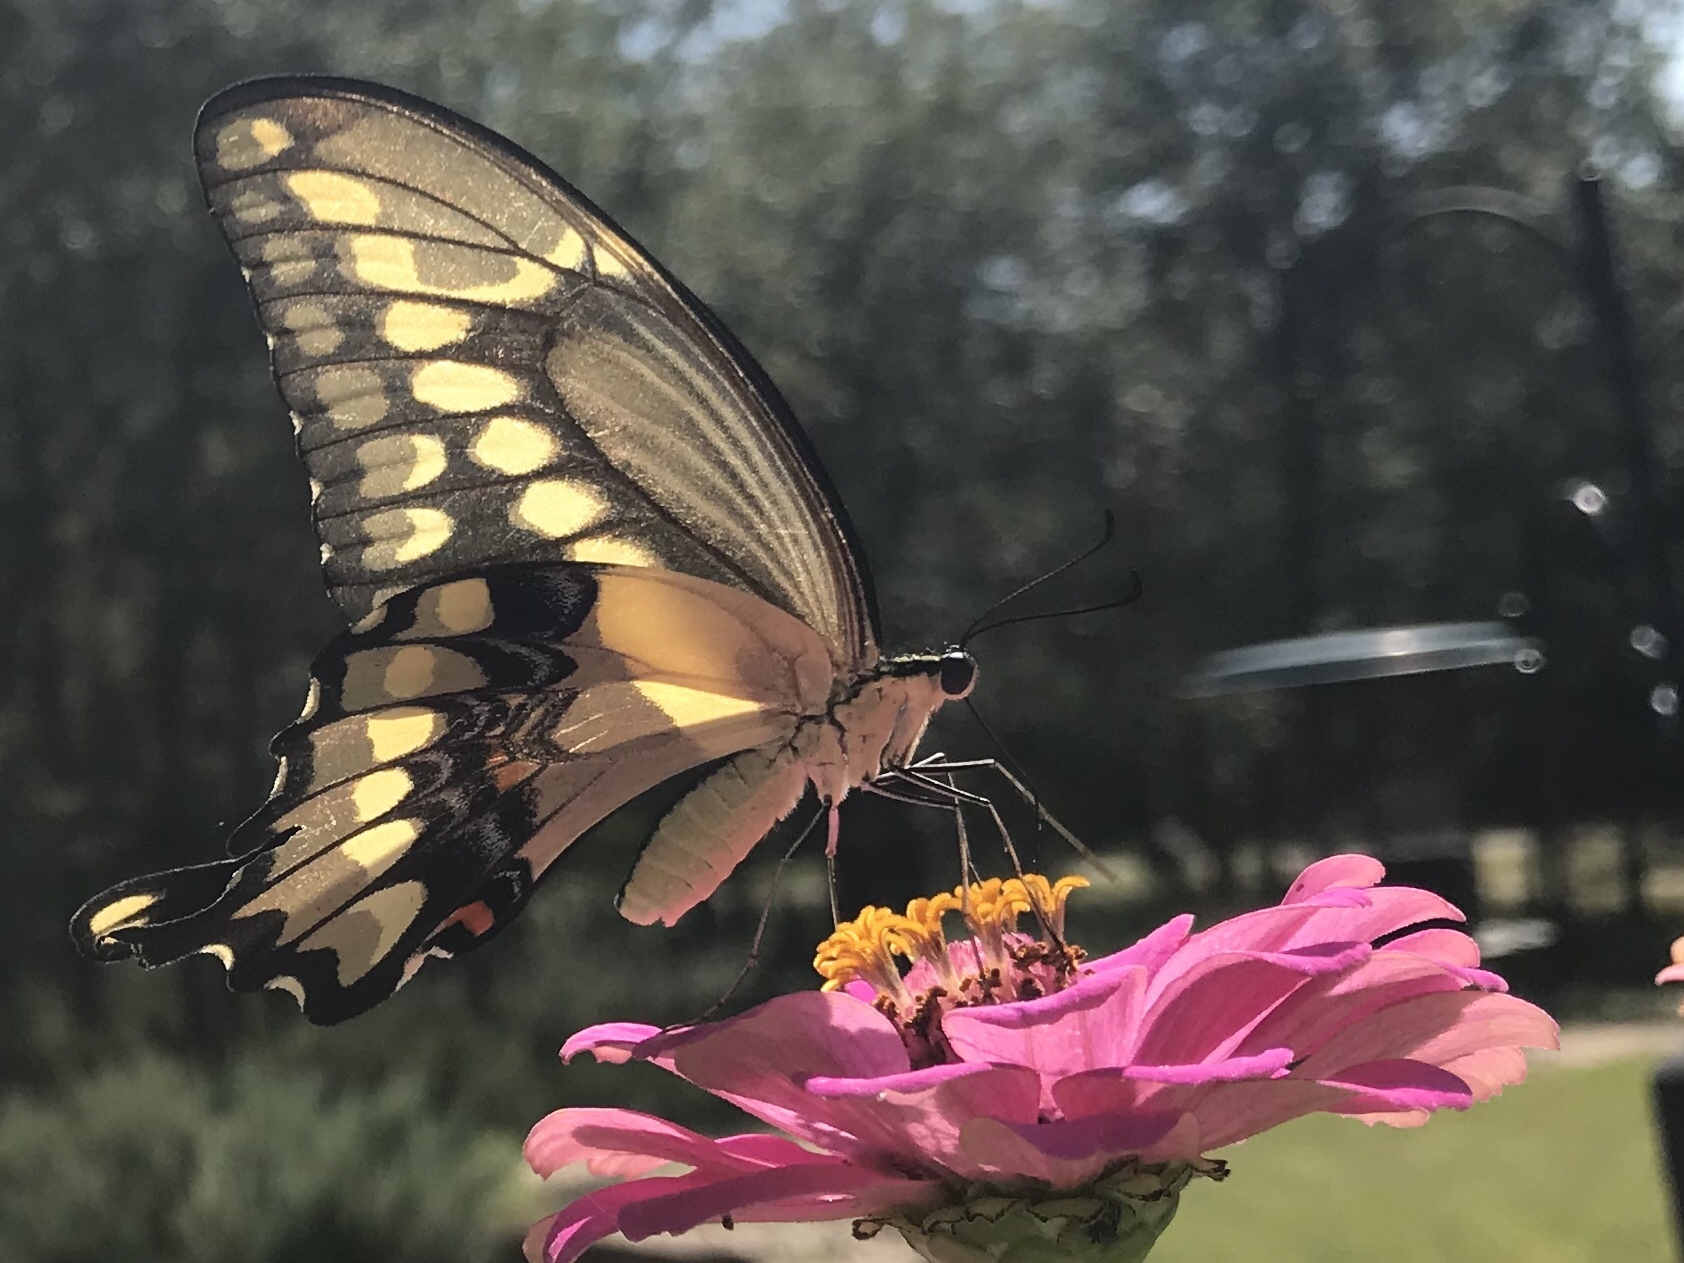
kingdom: Animalia
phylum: Arthropoda
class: Insecta
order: Lepidoptera
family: Papilionidae
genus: Papilio
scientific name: Papilio cresphontes
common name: Giant swallowtail
